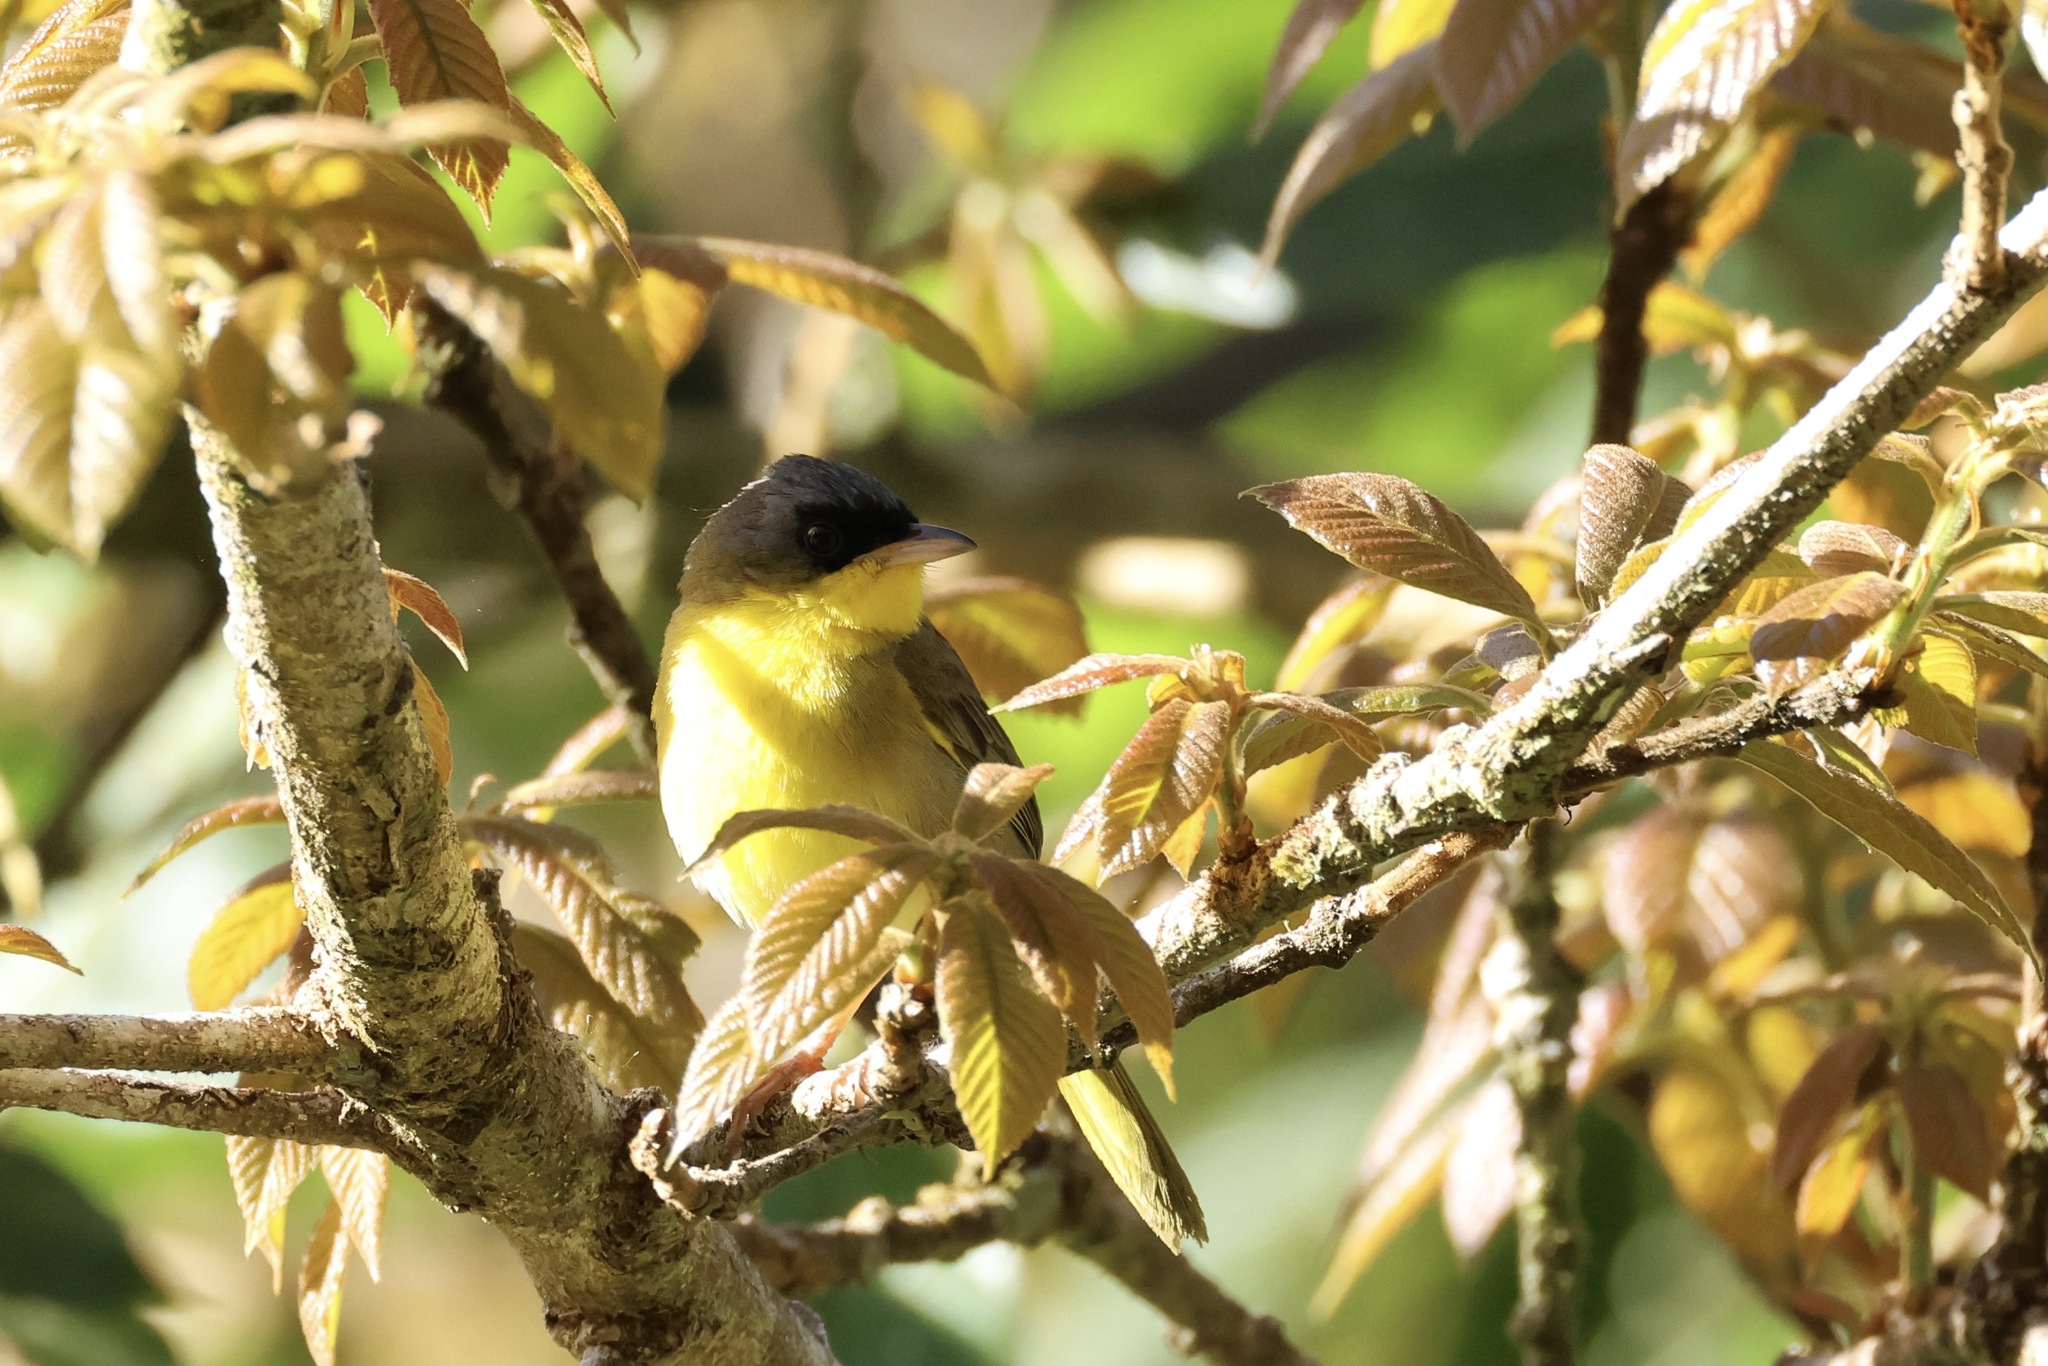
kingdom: Animalia
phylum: Chordata
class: Aves
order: Passeriformes
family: Parulidae
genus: Geothlypis
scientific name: Geothlypis poliocephala
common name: Gray-crowned yellowthroat
